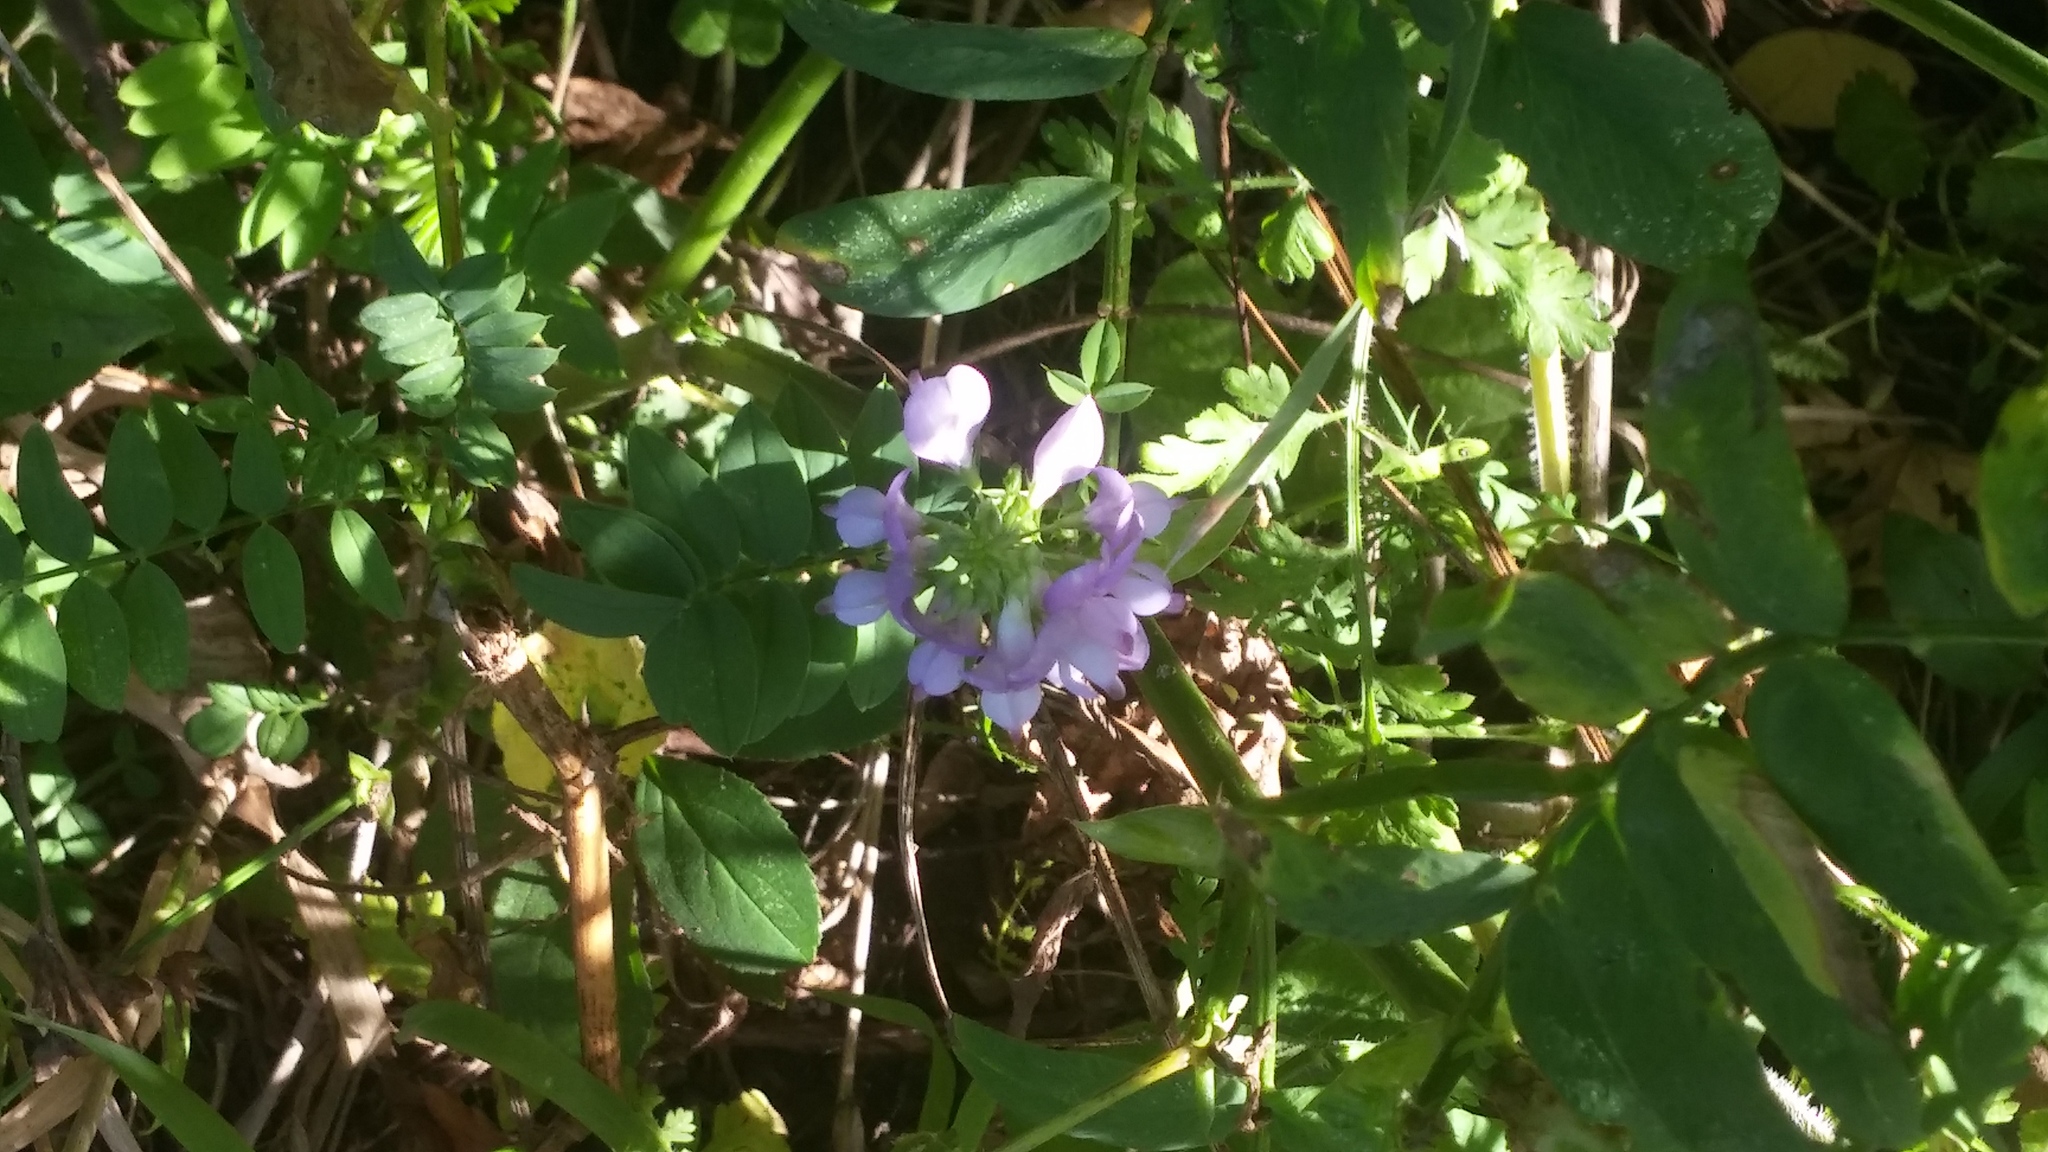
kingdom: Plantae
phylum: Tracheophyta
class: Magnoliopsida
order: Fabales
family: Fabaceae
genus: Galega
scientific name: Galega officinalis
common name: Goat's-rue
